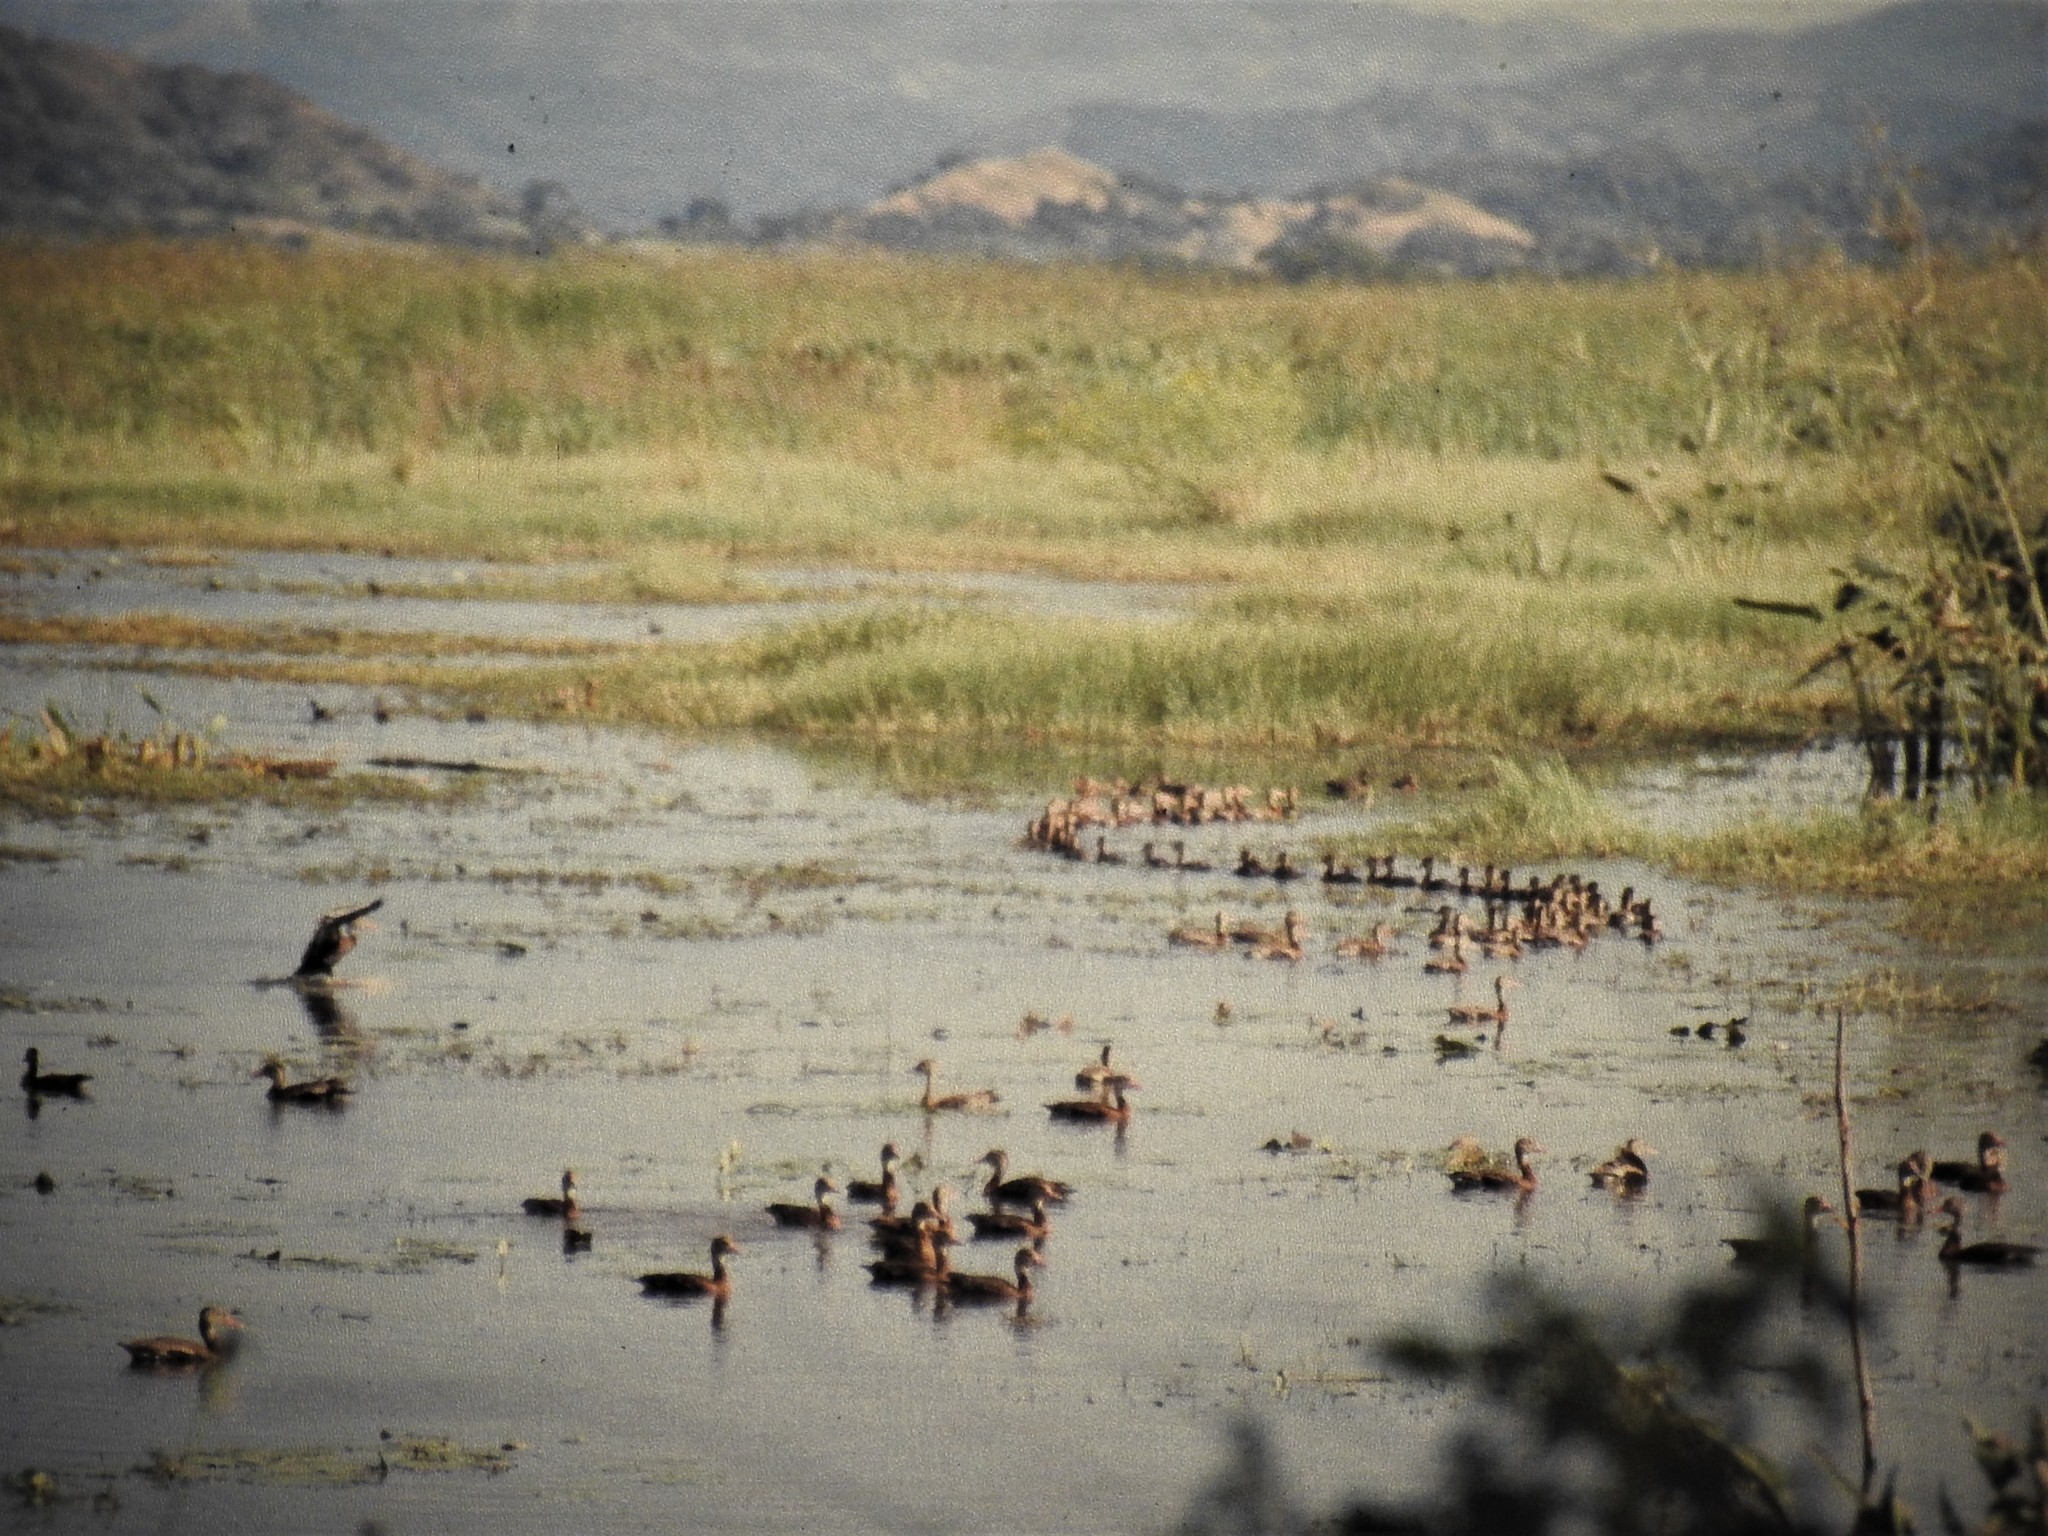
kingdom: Animalia
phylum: Chordata
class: Aves
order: Anseriformes
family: Anatidae
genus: Dendrocygna
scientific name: Dendrocygna autumnalis
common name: Black-bellied whistling duck
